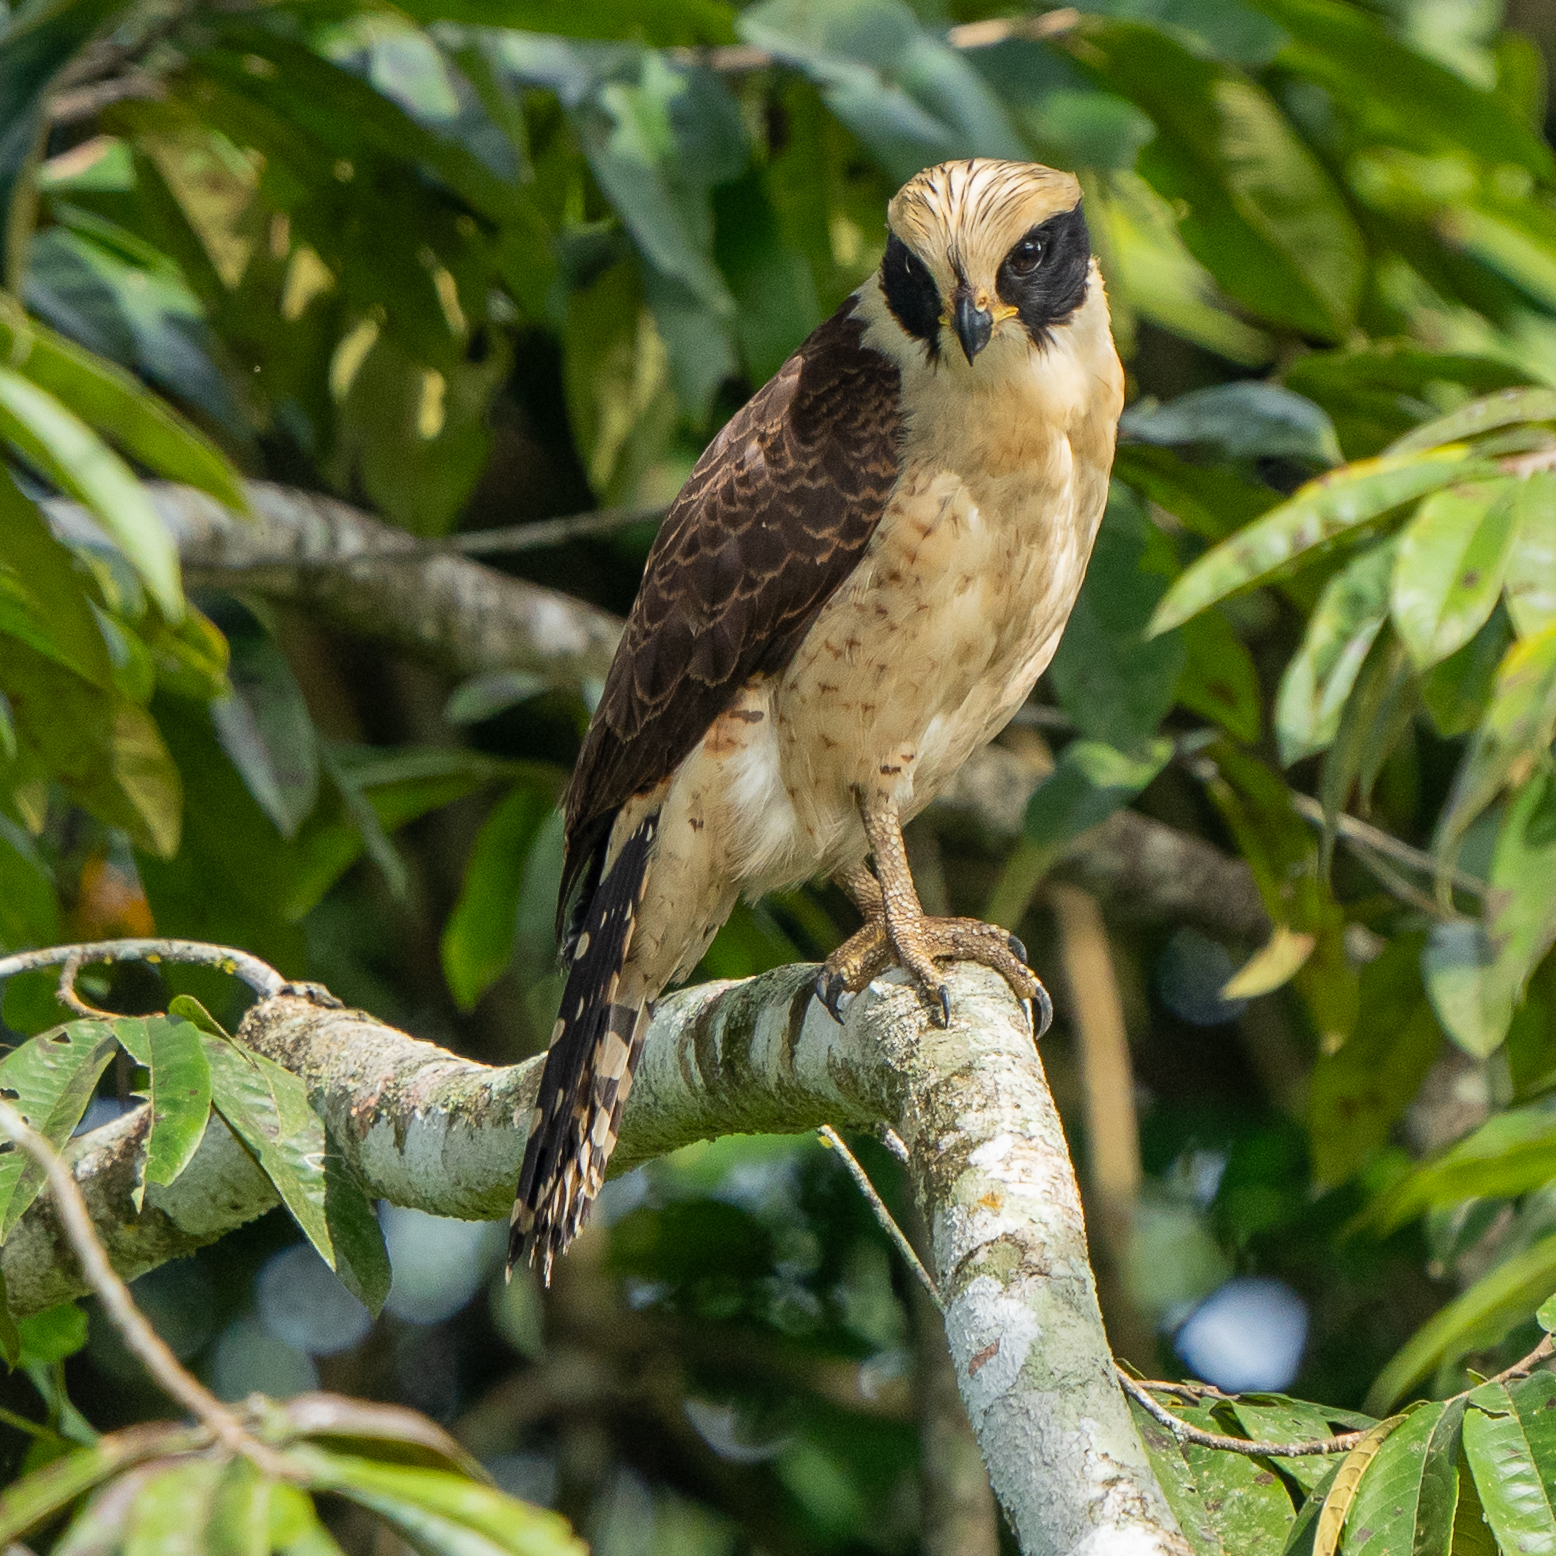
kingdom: Animalia
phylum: Chordata
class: Aves
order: Falconiformes
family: Falconidae
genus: Herpetotheres
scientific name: Herpetotheres cachinnans
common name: Laughing falcon
